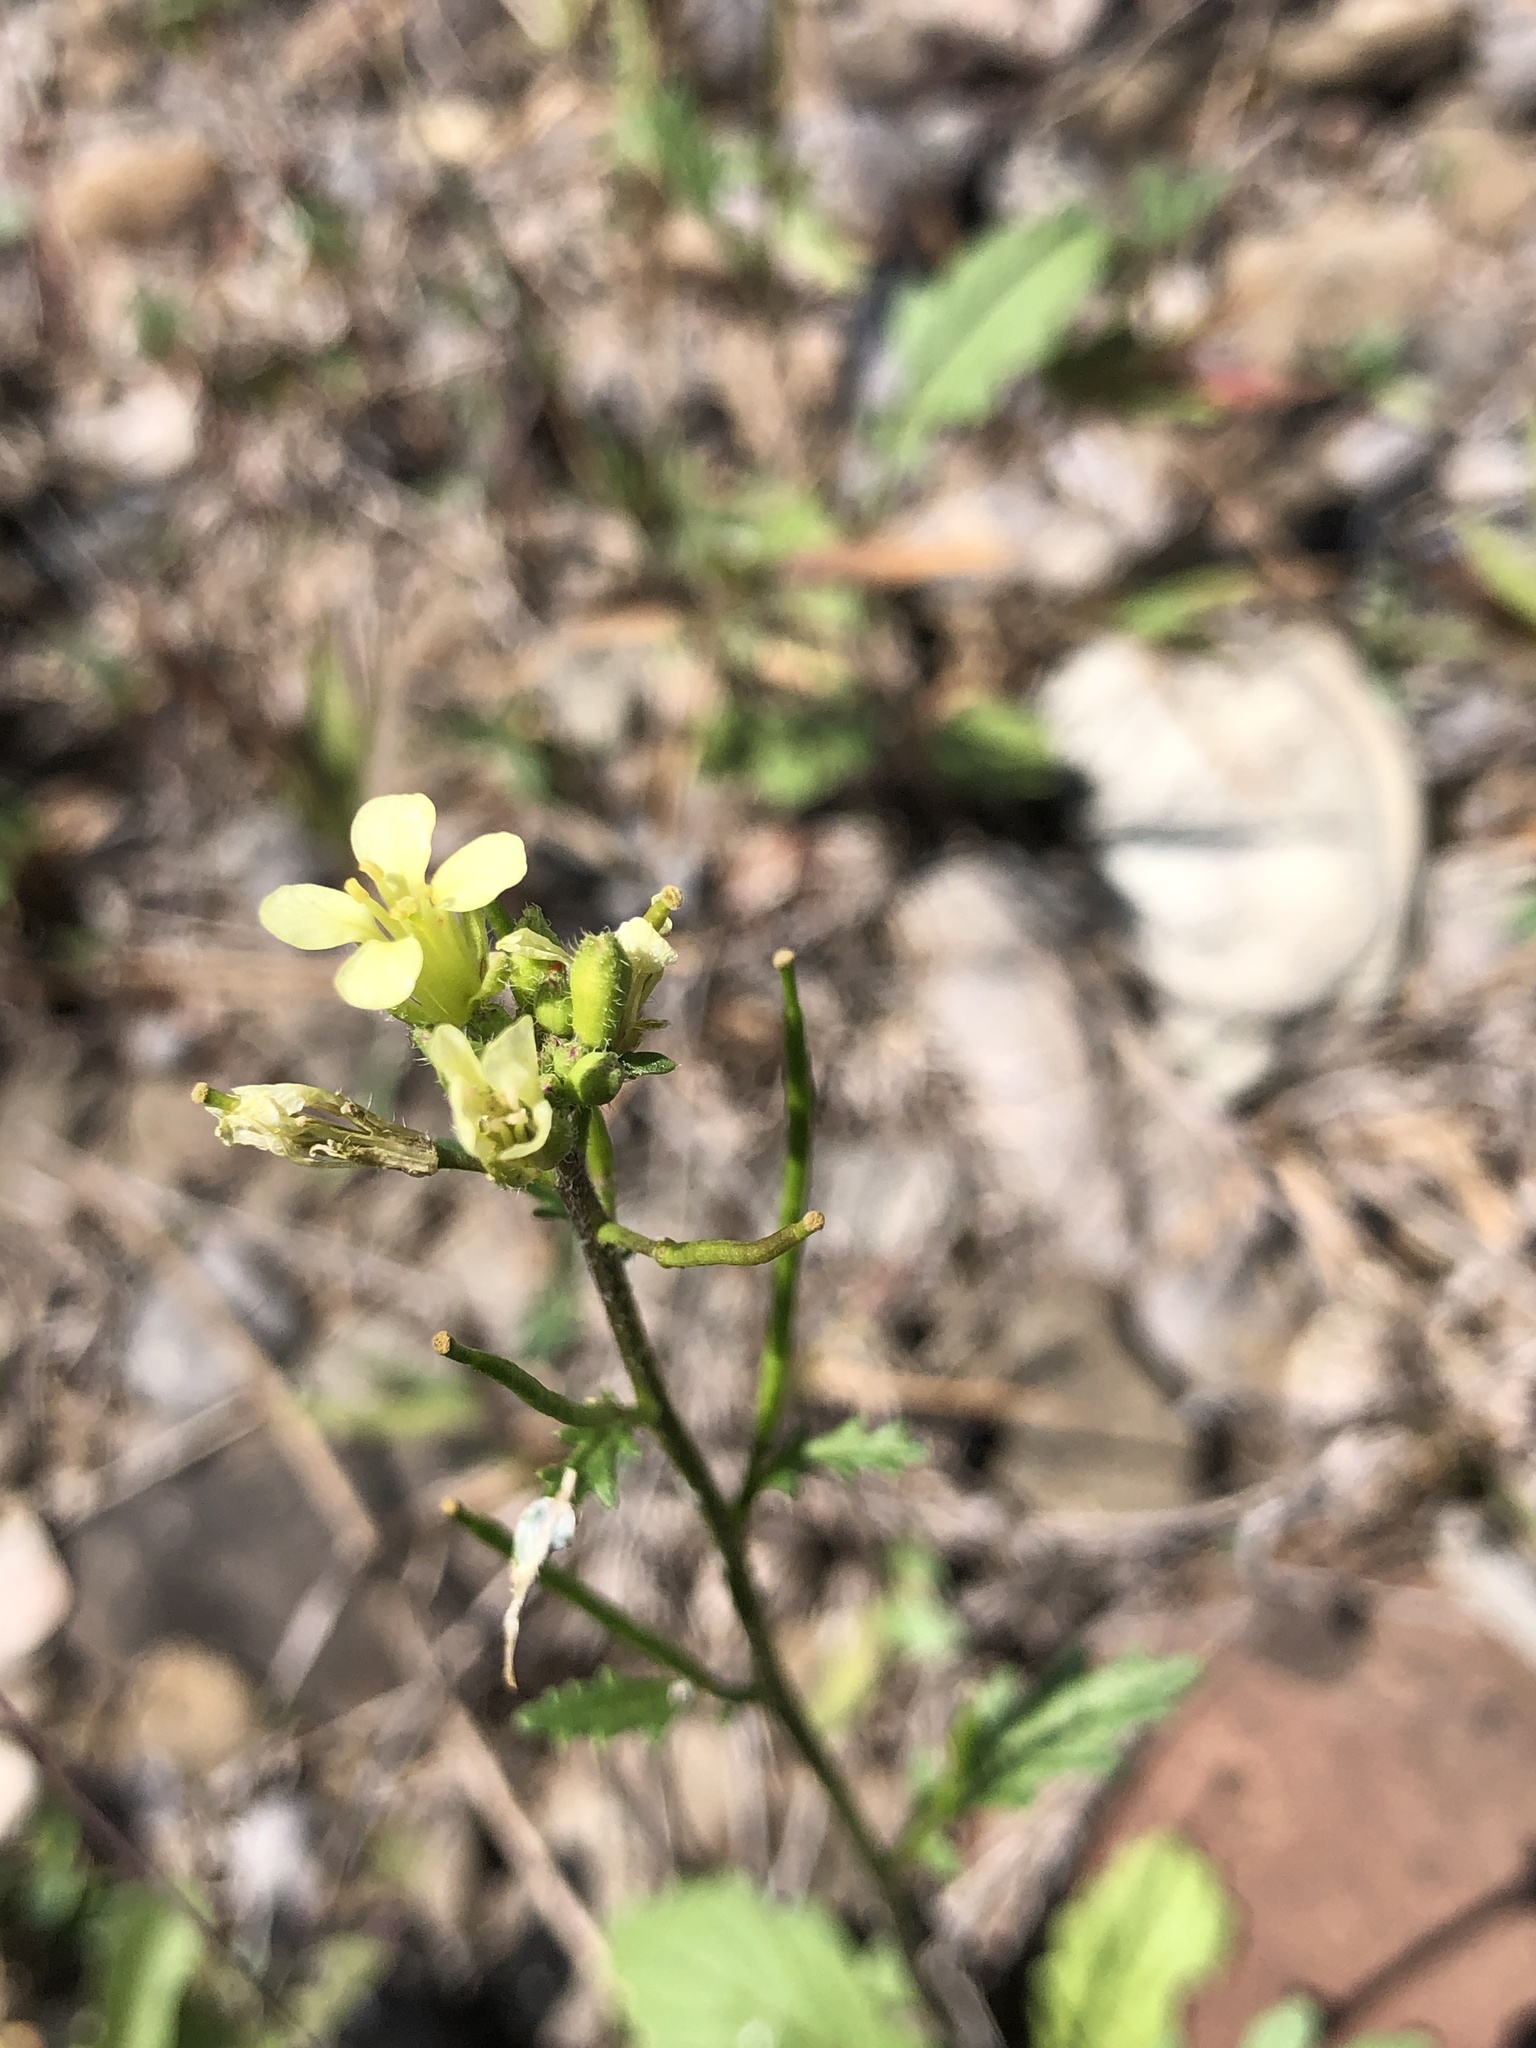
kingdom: Plantae
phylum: Tracheophyta
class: Magnoliopsida
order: Brassicales
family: Brassicaceae
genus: Erucastrum
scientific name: Erucastrum gallicum
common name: Hairy rocket
